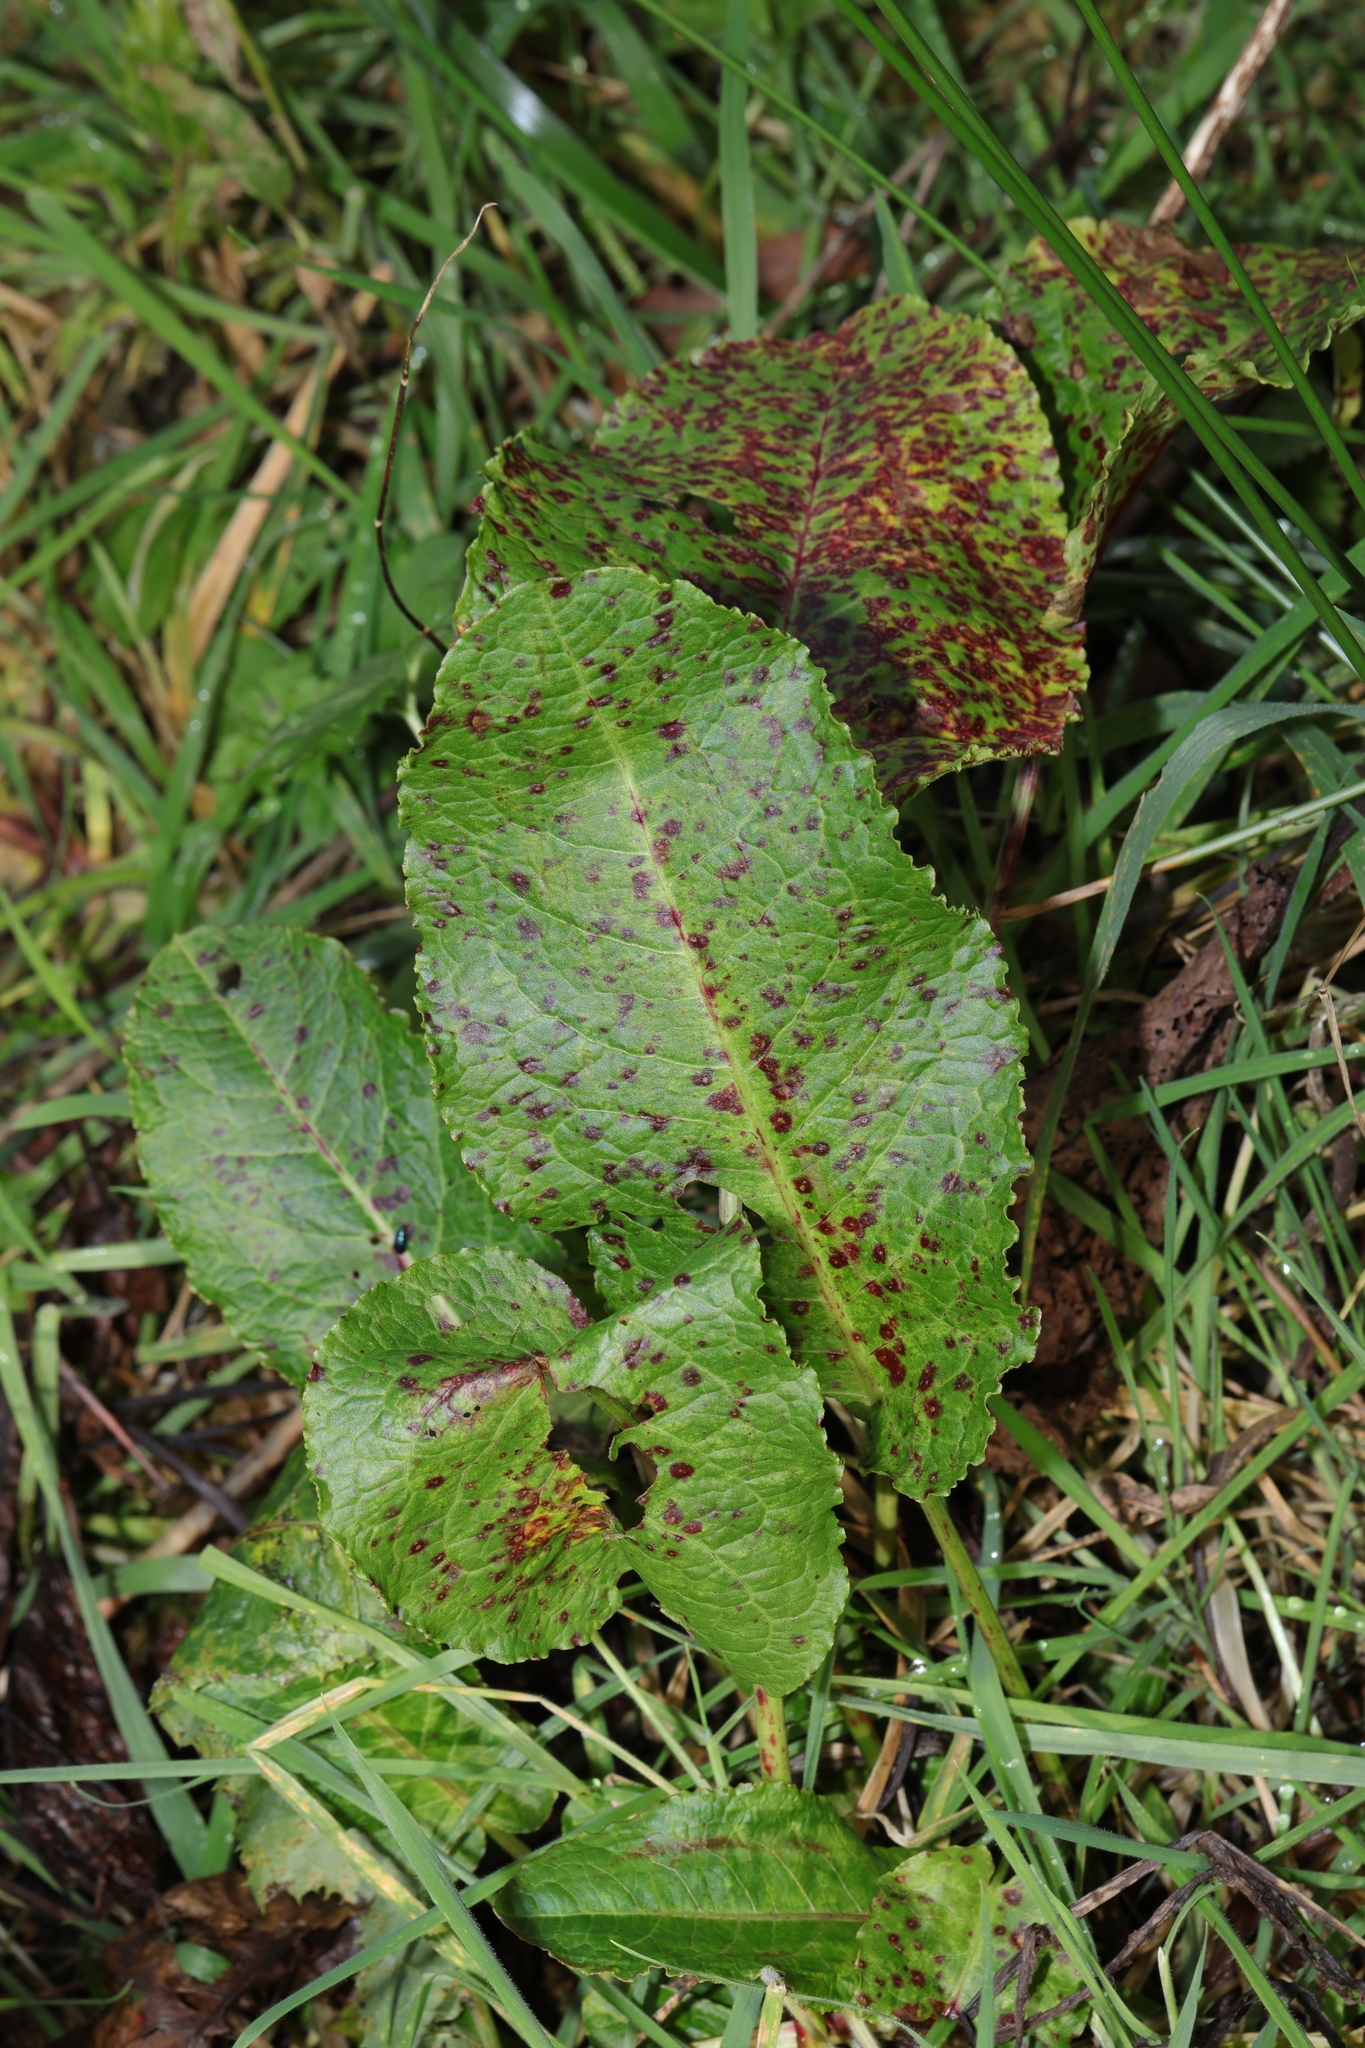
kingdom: Plantae
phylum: Tracheophyta
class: Magnoliopsida
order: Caryophyllales
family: Polygonaceae
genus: Rumex
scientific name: Rumex obtusifolius
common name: Bitter dock
